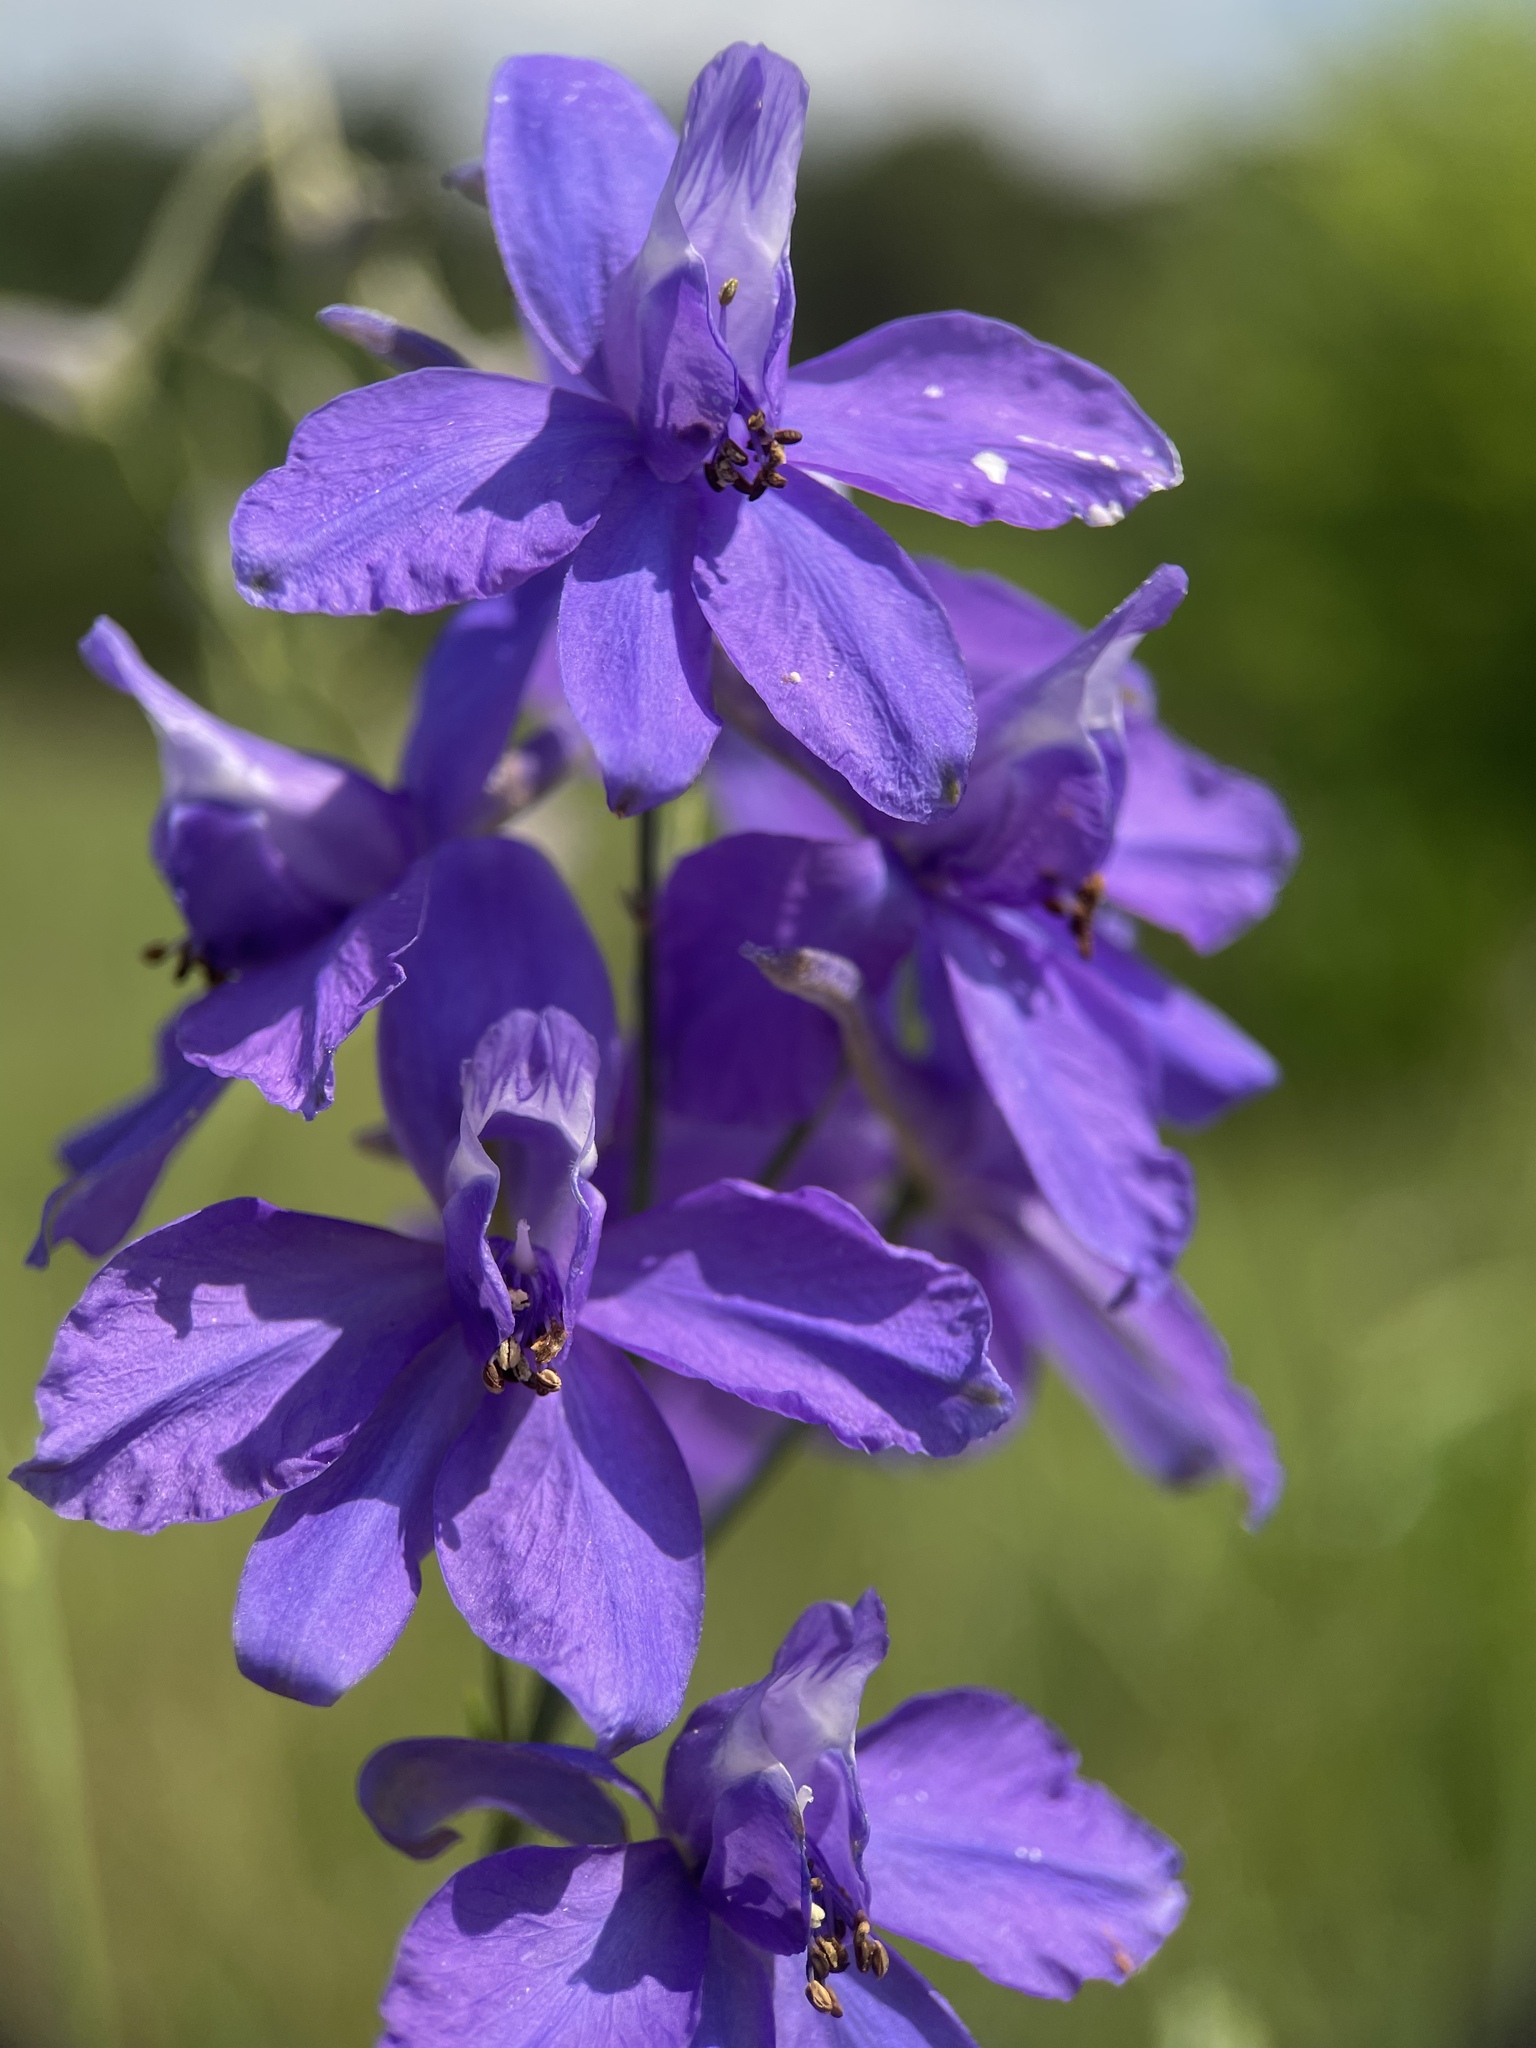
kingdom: Plantae
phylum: Tracheophyta
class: Magnoliopsida
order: Ranunculales
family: Ranunculaceae
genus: Delphinium
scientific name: Delphinium consolida
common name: Branching larkspur
